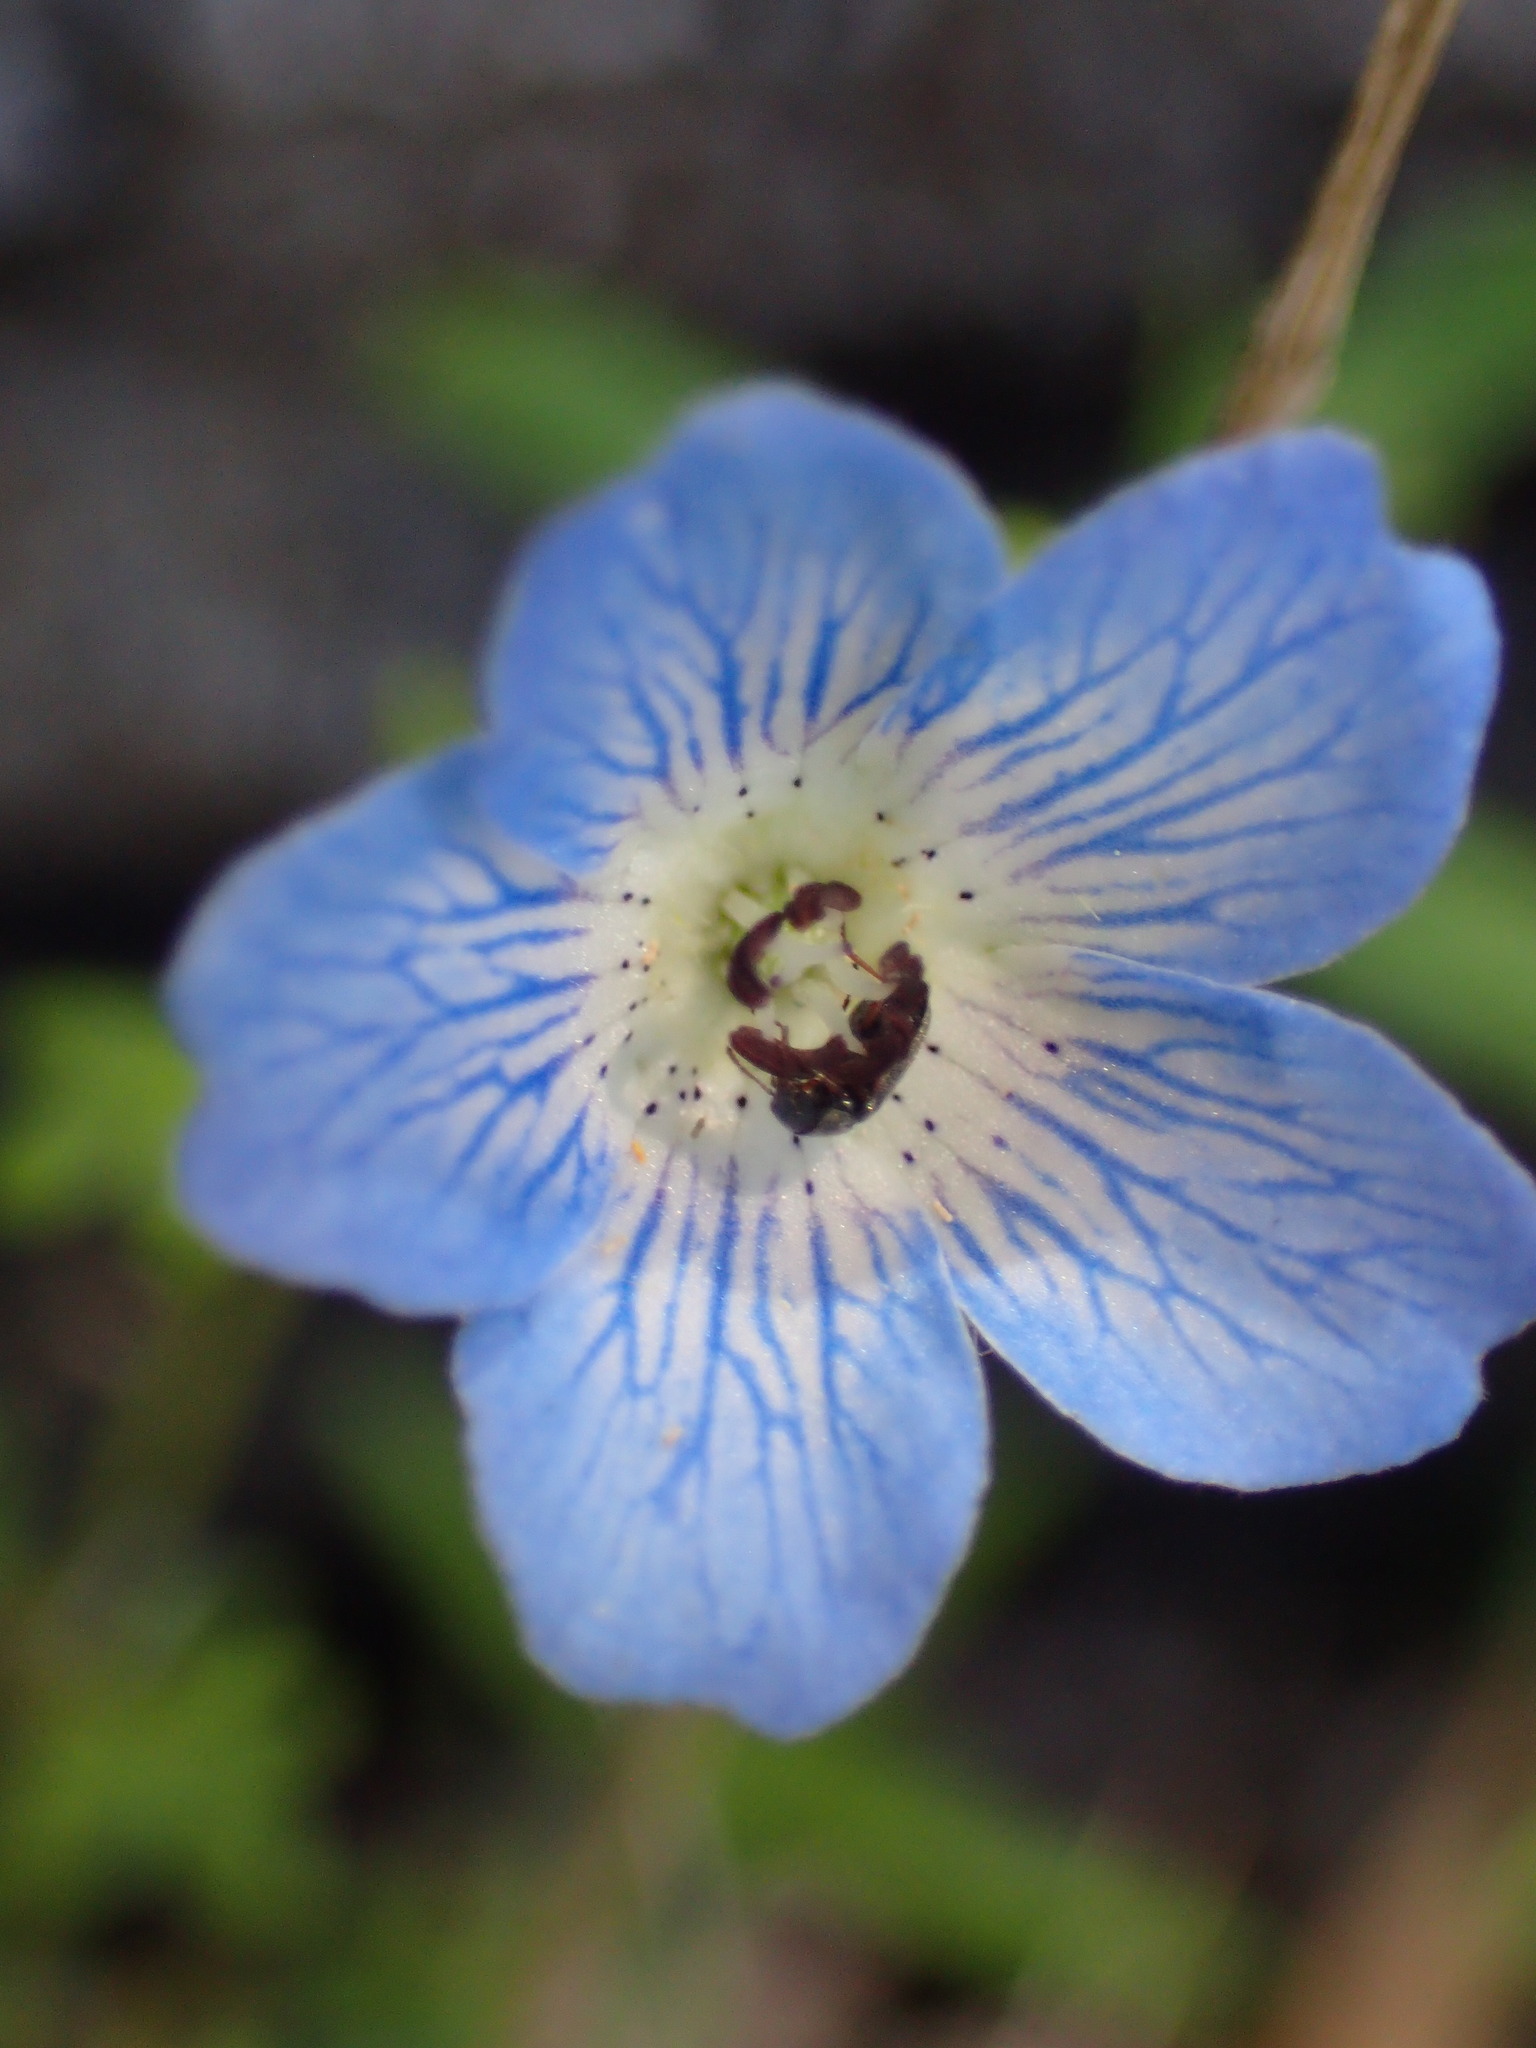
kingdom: Plantae
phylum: Tracheophyta
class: Magnoliopsida
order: Boraginales
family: Hydrophyllaceae
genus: Nemophila
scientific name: Nemophila menziesii
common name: Baby's-blue-eyes
